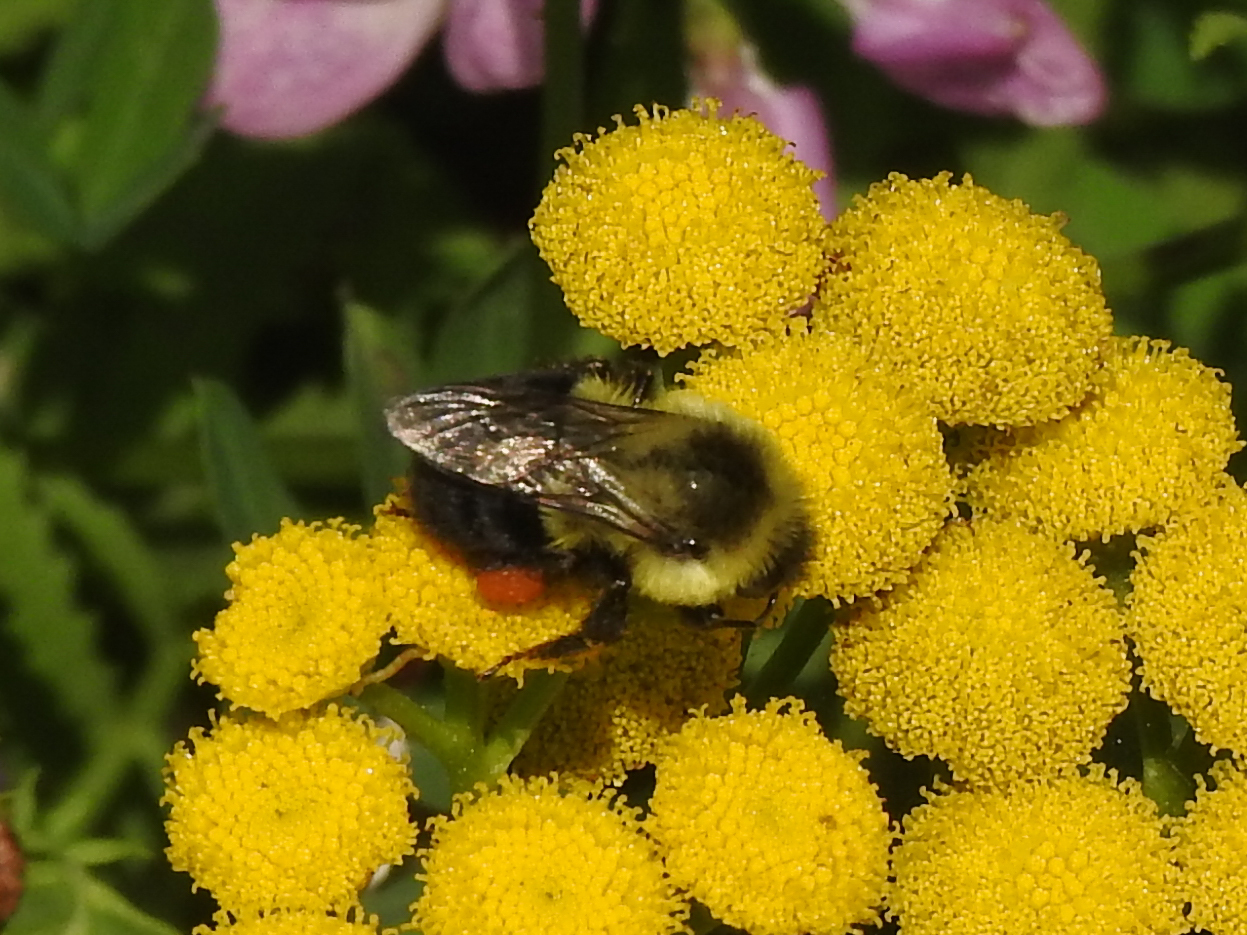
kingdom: Animalia
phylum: Arthropoda
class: Insecta
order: Hymenoptera
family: Apidae
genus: Bombus
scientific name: Bombus impatiens
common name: Common eastern bumble bee
